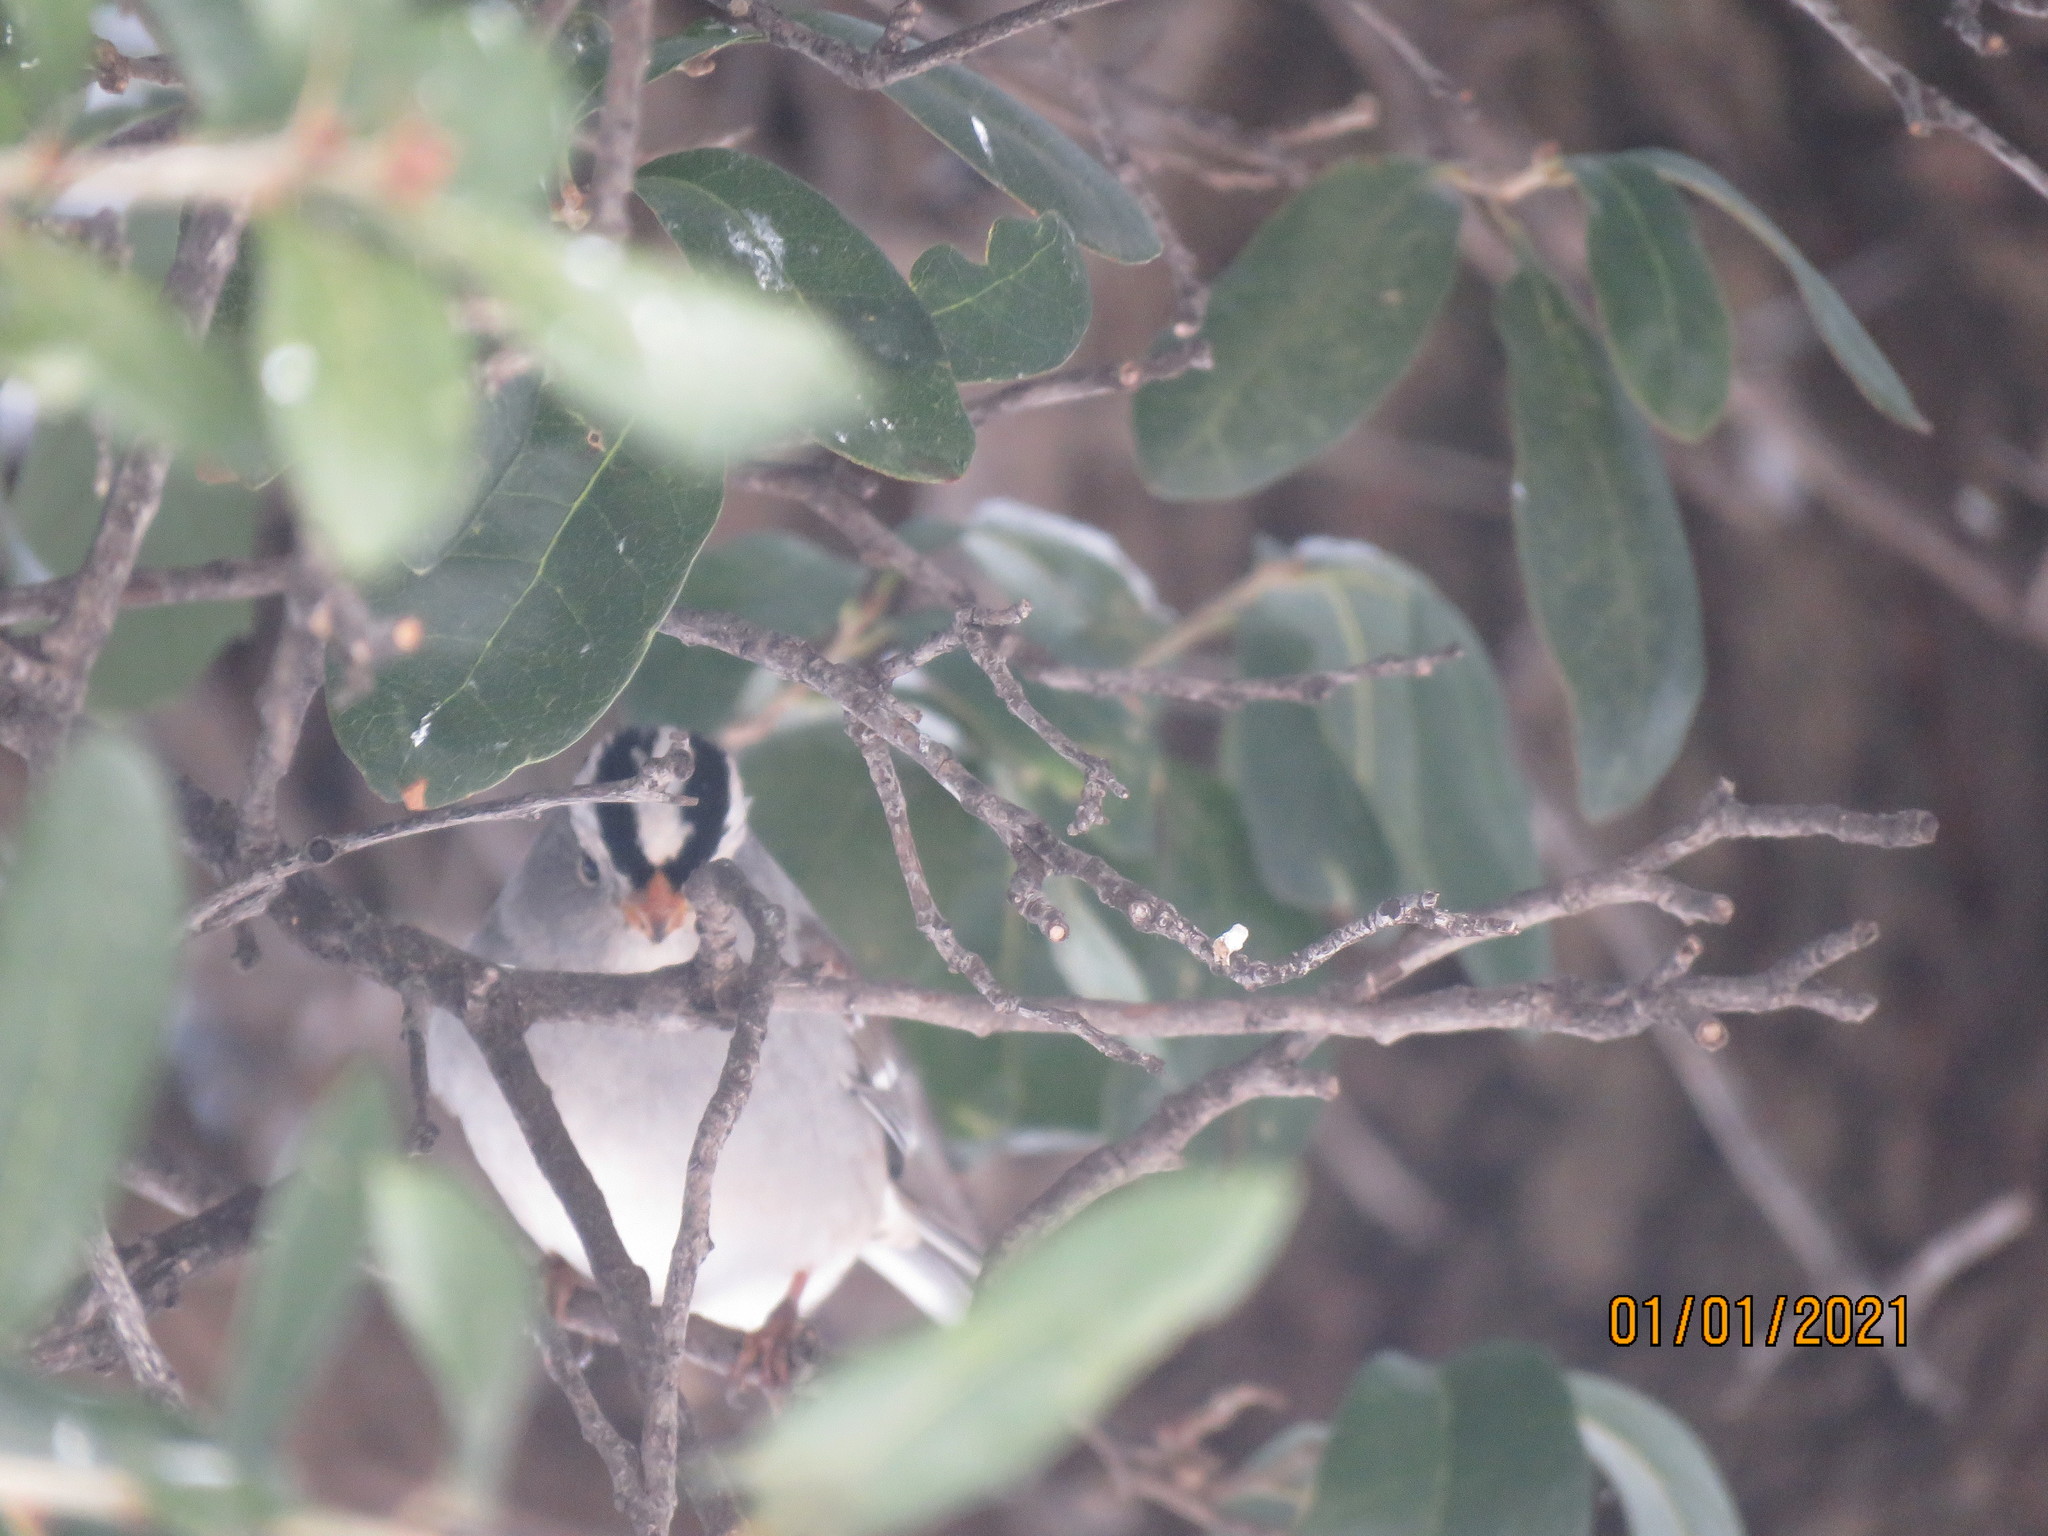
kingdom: Animalia
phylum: Chordata
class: Aves
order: Passeriformes
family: Passerellidae
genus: Zonotrichia
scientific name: Zonotrichia leucophrys
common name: White-crowned sparrow
